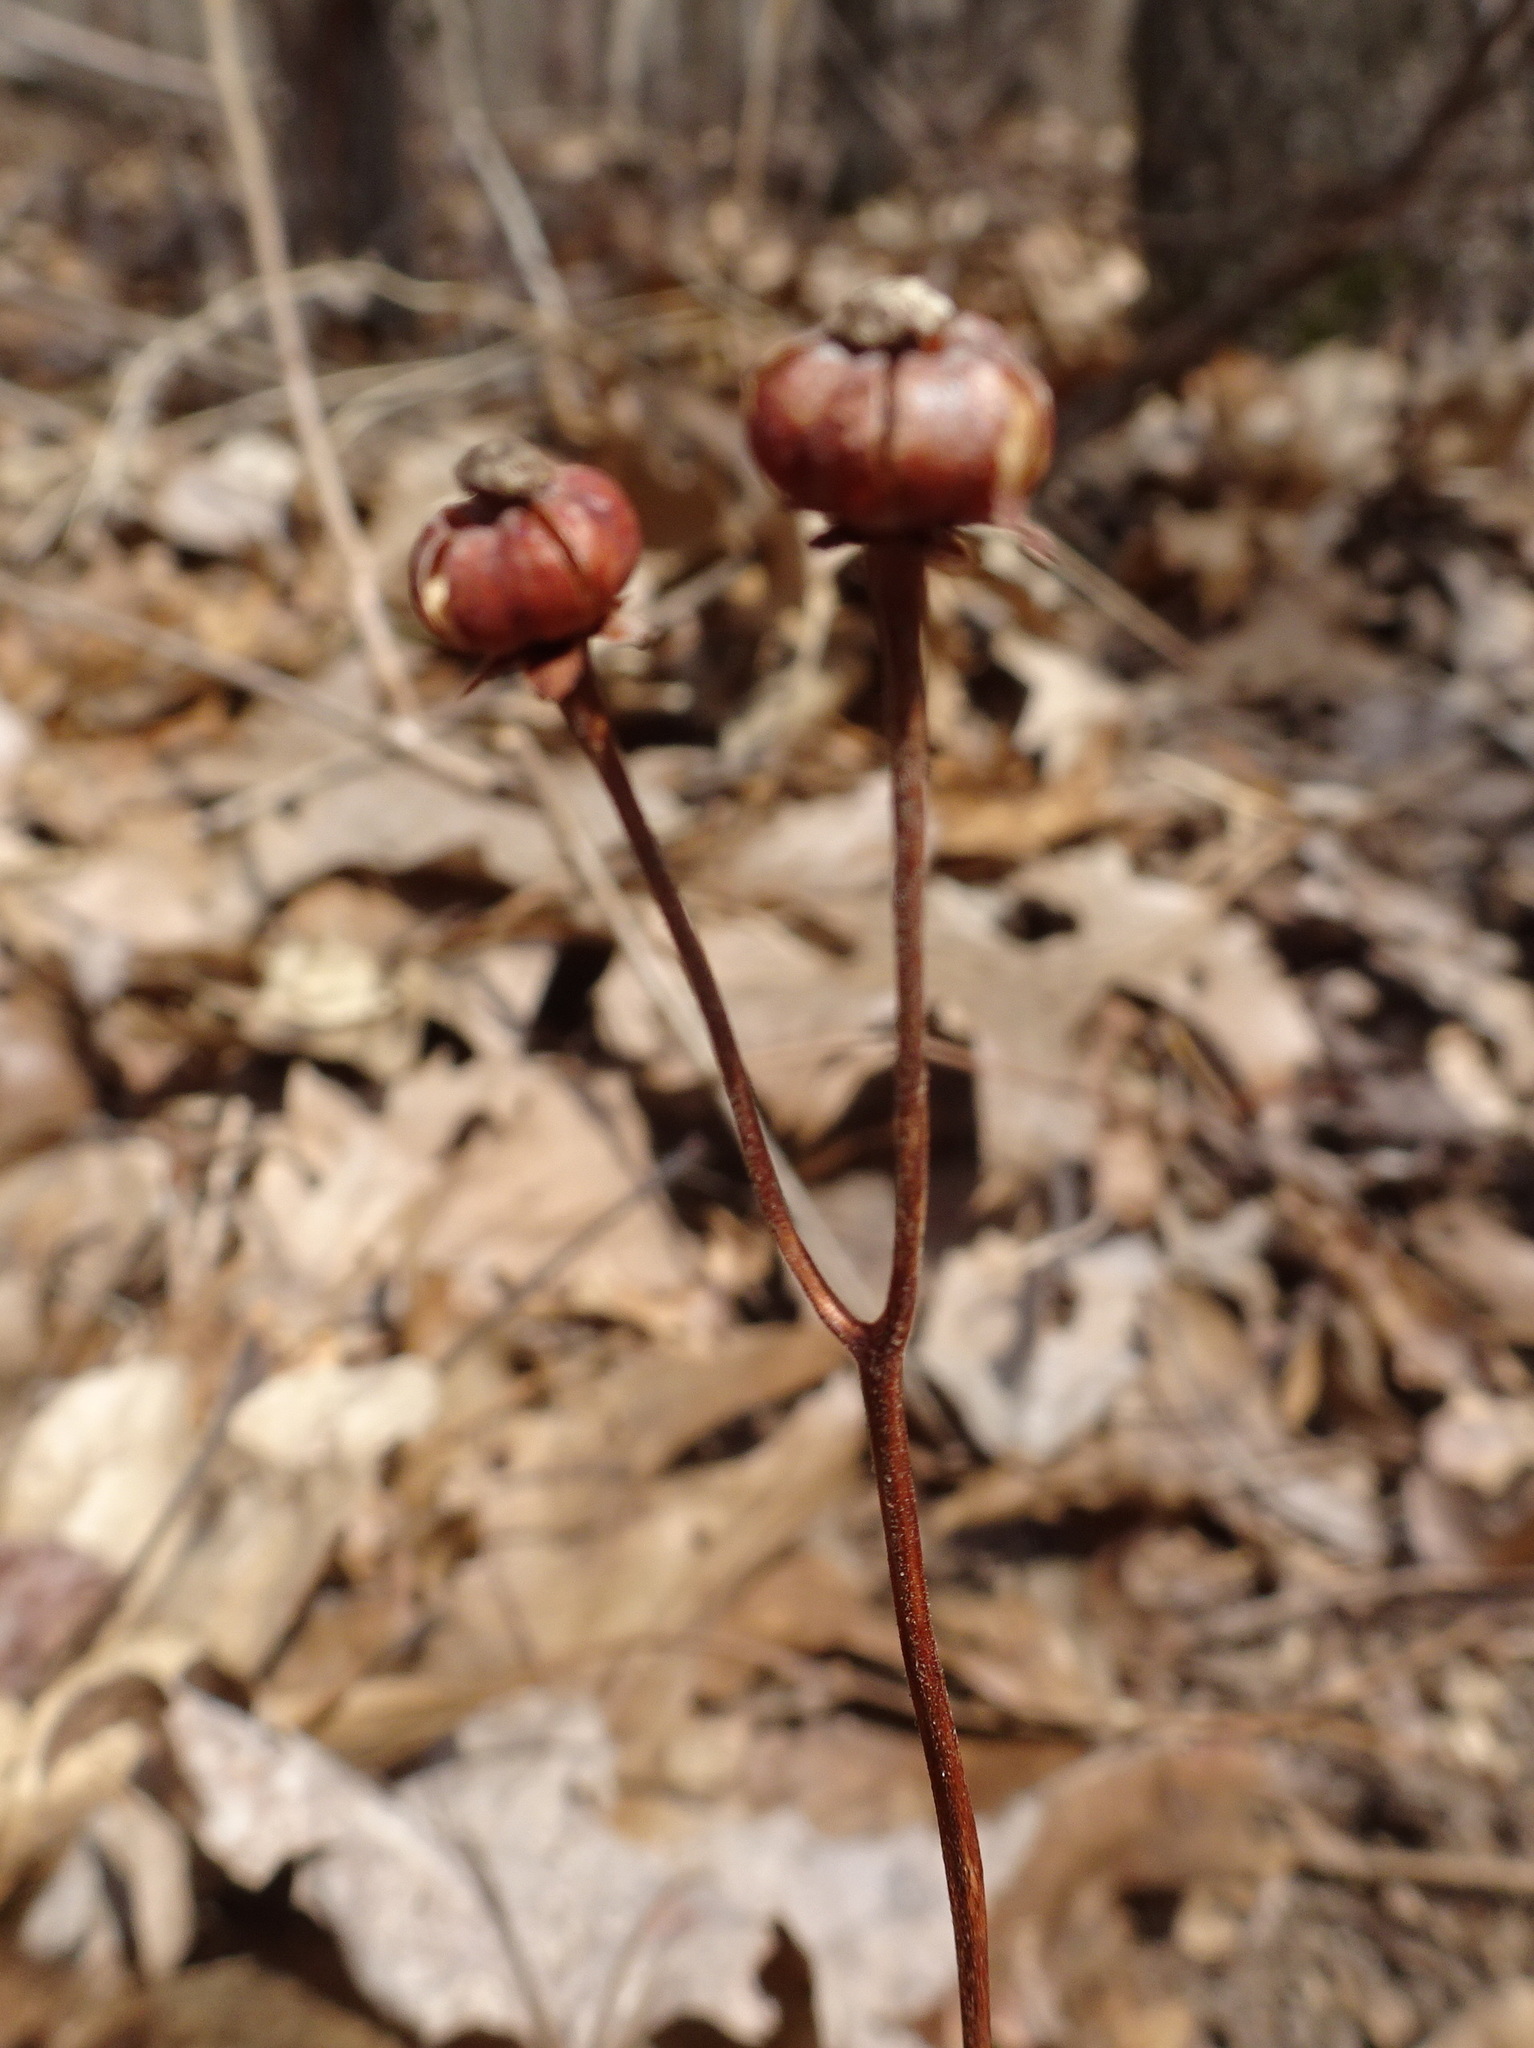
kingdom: Plantae
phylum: Tracheophyta
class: Magnoliopsida
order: Ericales
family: Ericaceae
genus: Chimaphila
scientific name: Chimaphila maculata
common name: Spotted pipsissewa
